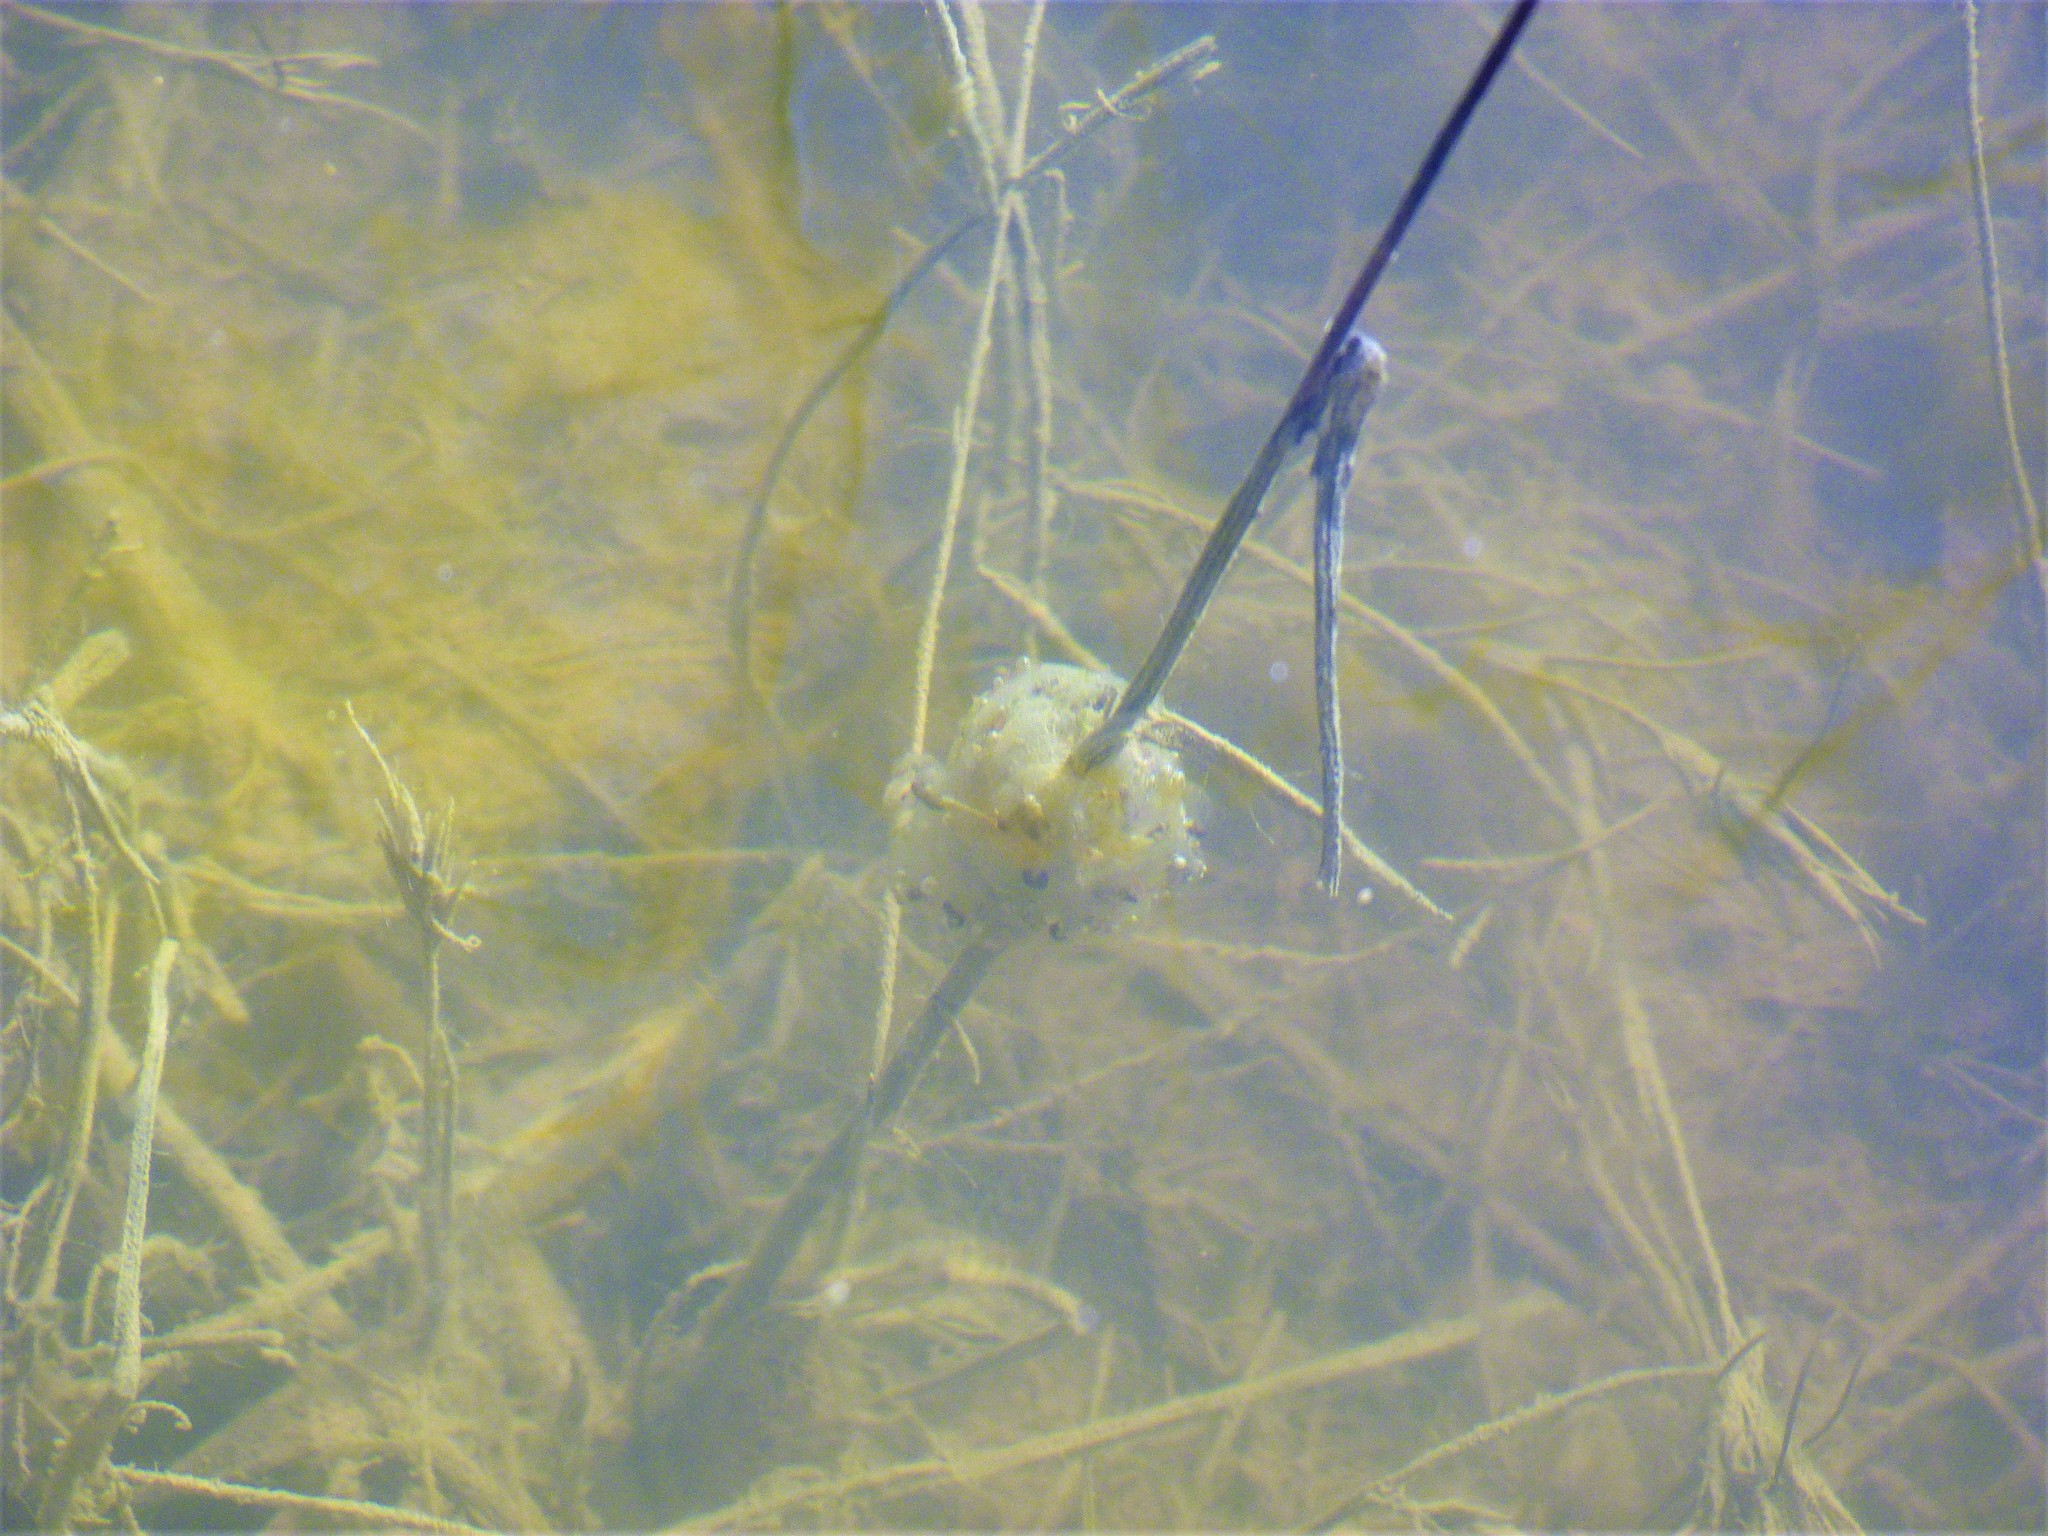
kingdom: Animalia
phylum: Chordata
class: Amphibia
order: Anura
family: Hylidae
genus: Pseudacris
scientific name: Pseudacris regilla
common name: Pacific chorus frog
